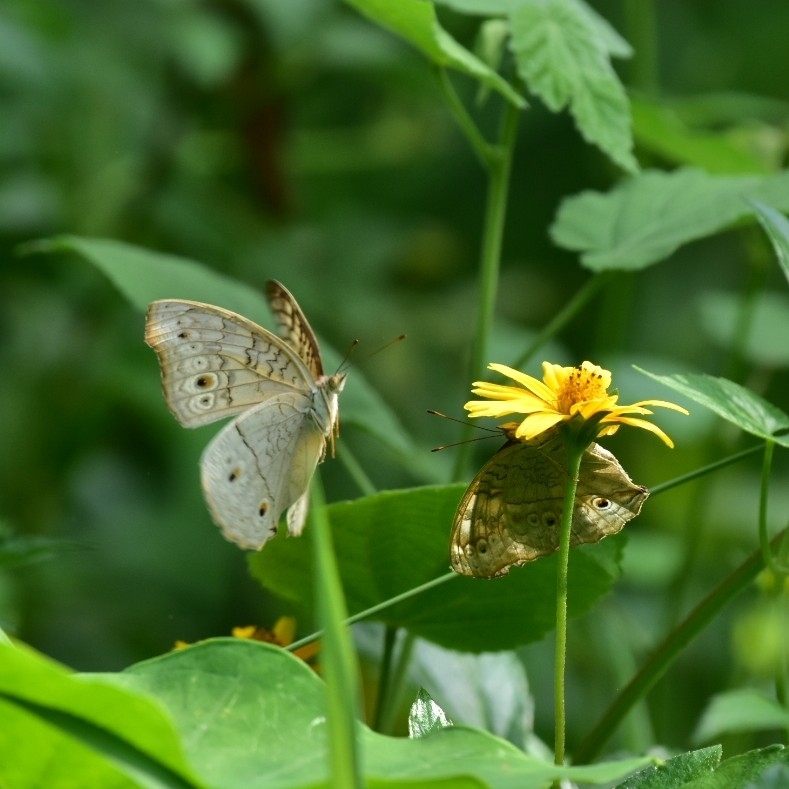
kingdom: Animalia
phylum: Arthropoda
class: Insecta
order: Lepidoptera
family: Nymphalidae
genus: Junonia
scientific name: Junonia atlites
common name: Grey pansy
